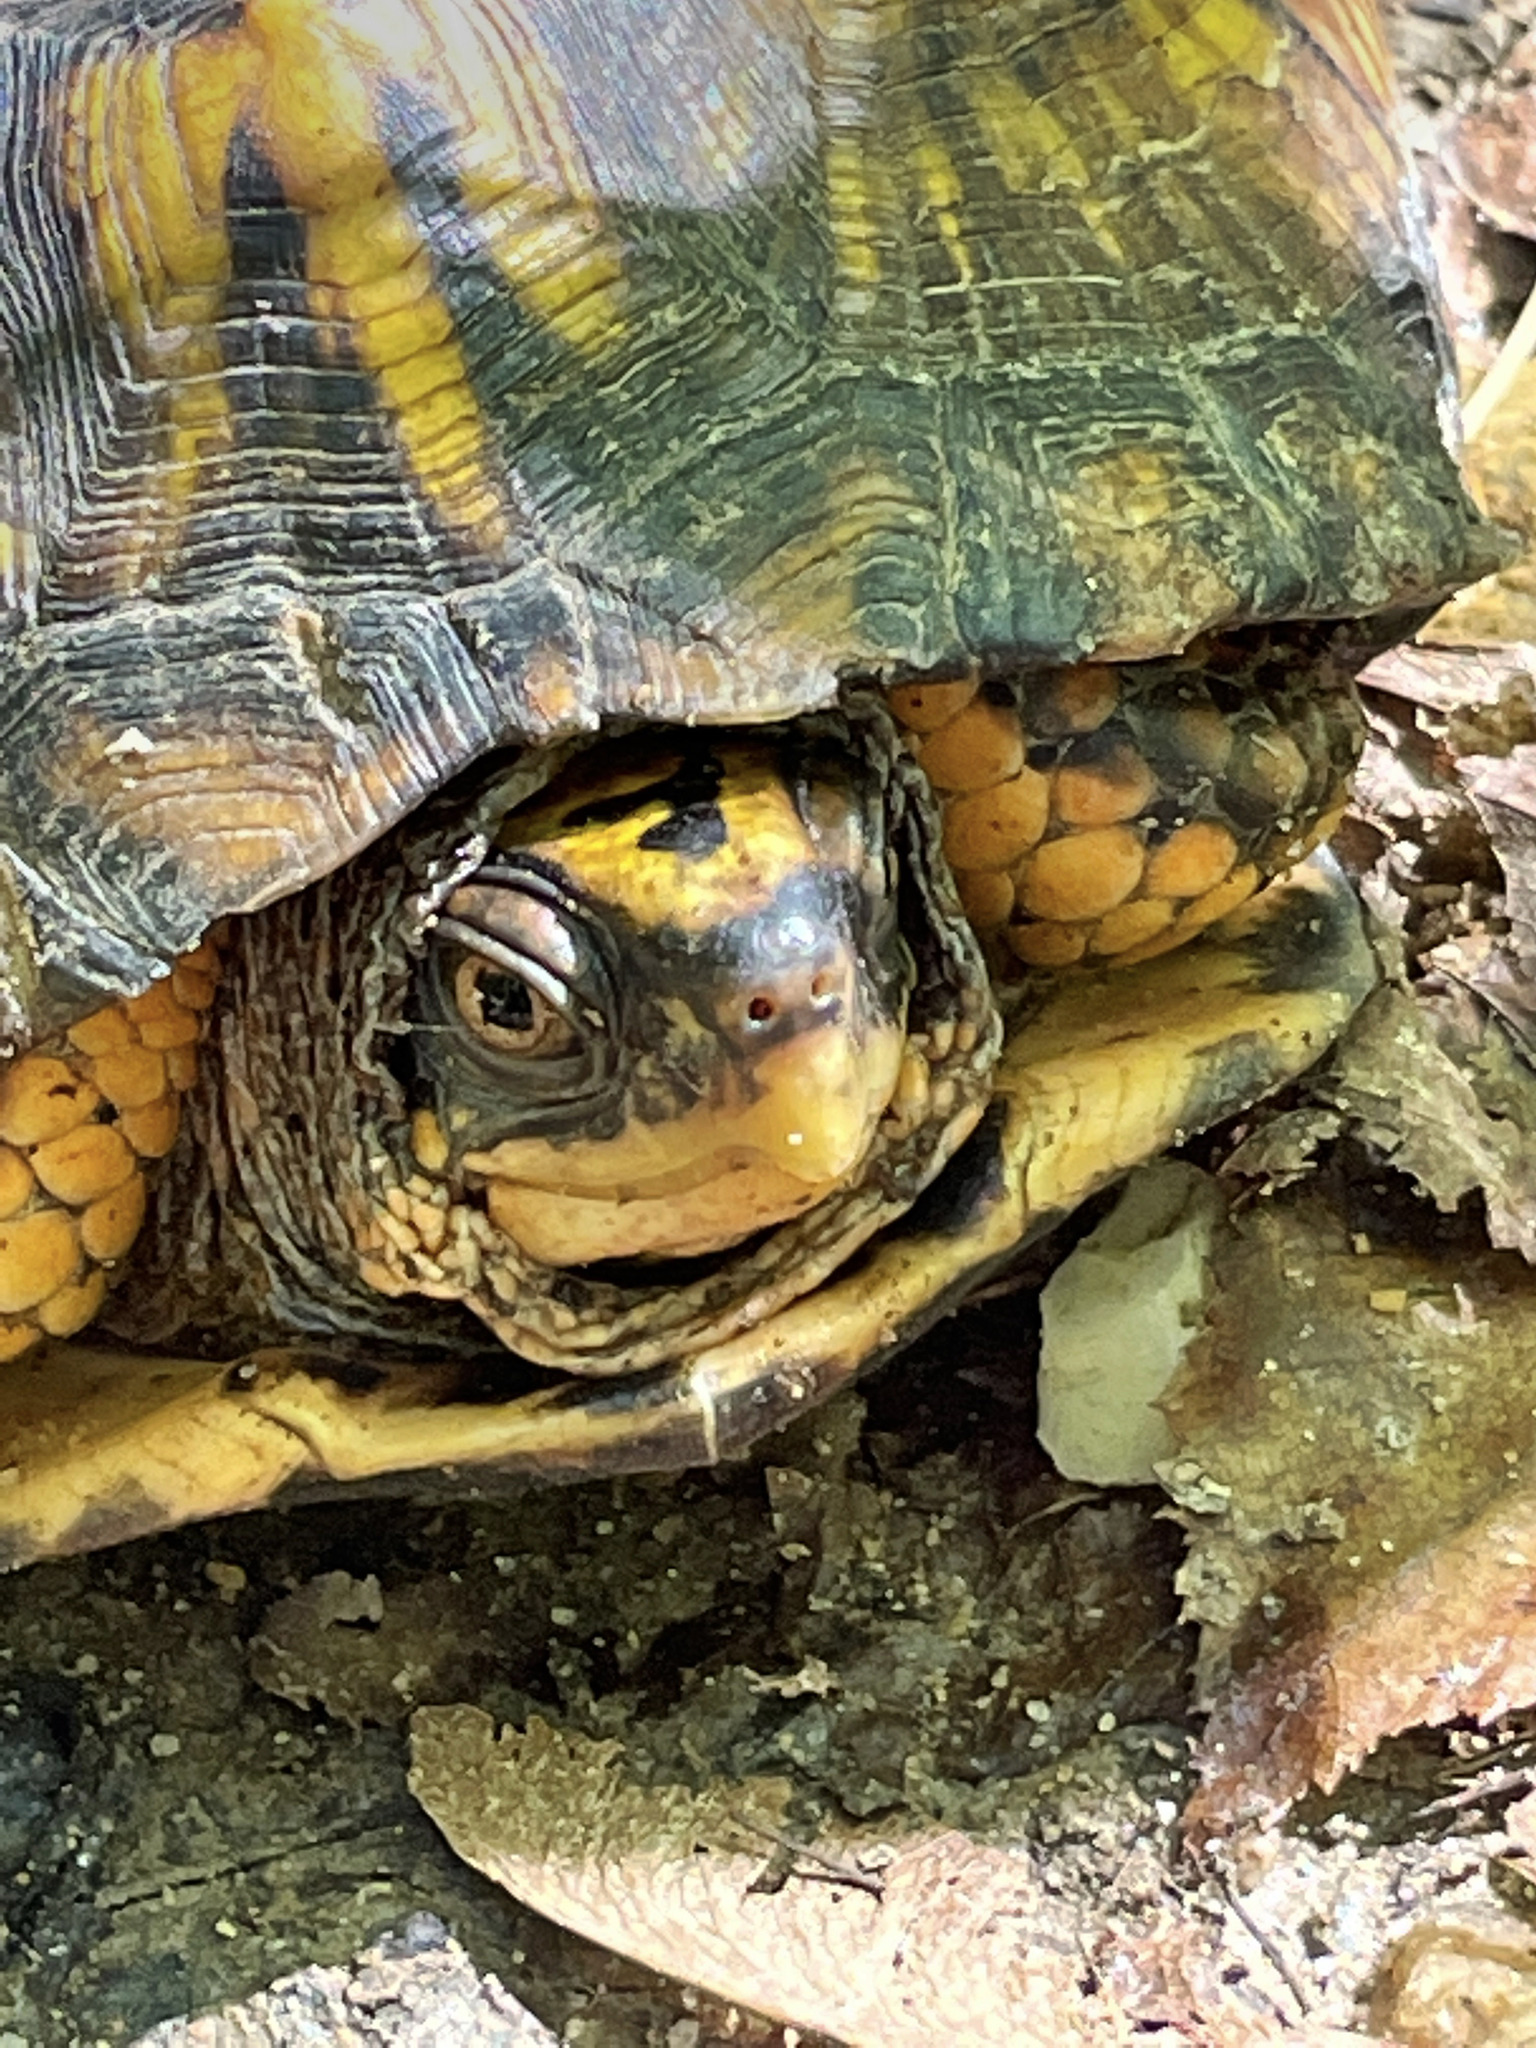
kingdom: Animalia
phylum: Chordata
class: Testudines
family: Emydidae
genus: Terrapene
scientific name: Terrapene carolina
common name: Common box turtle
